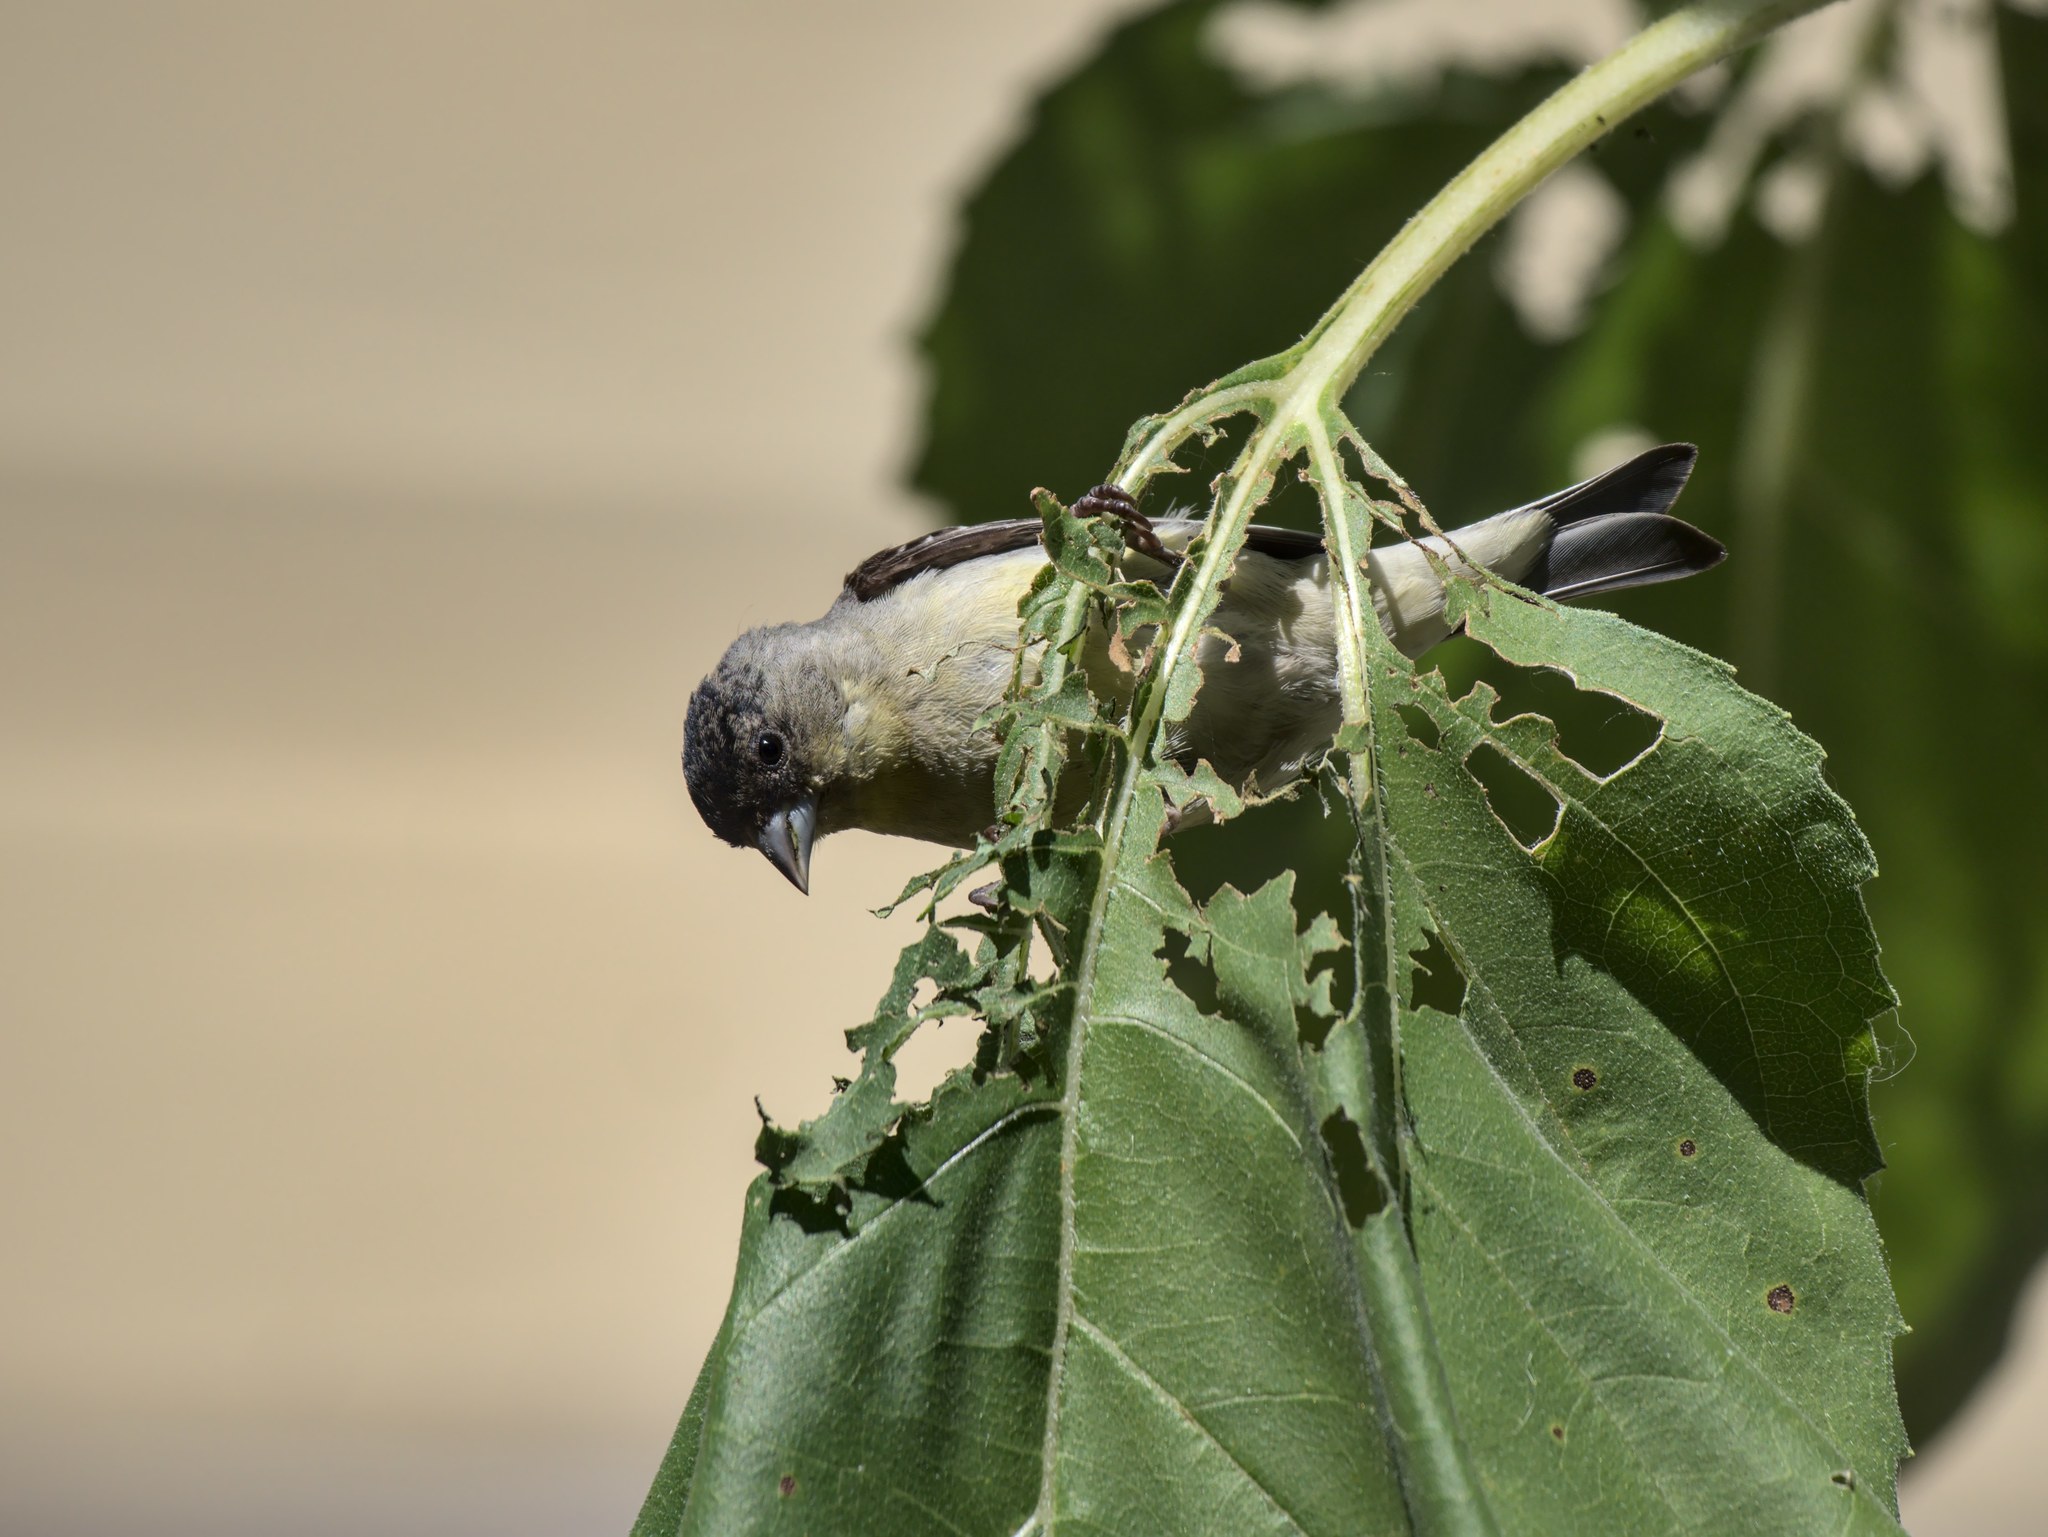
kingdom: Animalia
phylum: Chordata
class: Aves
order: Passeriformes
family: Fringillidae
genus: Spinus
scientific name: Spinus psaltria
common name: Lesser goldfinch
